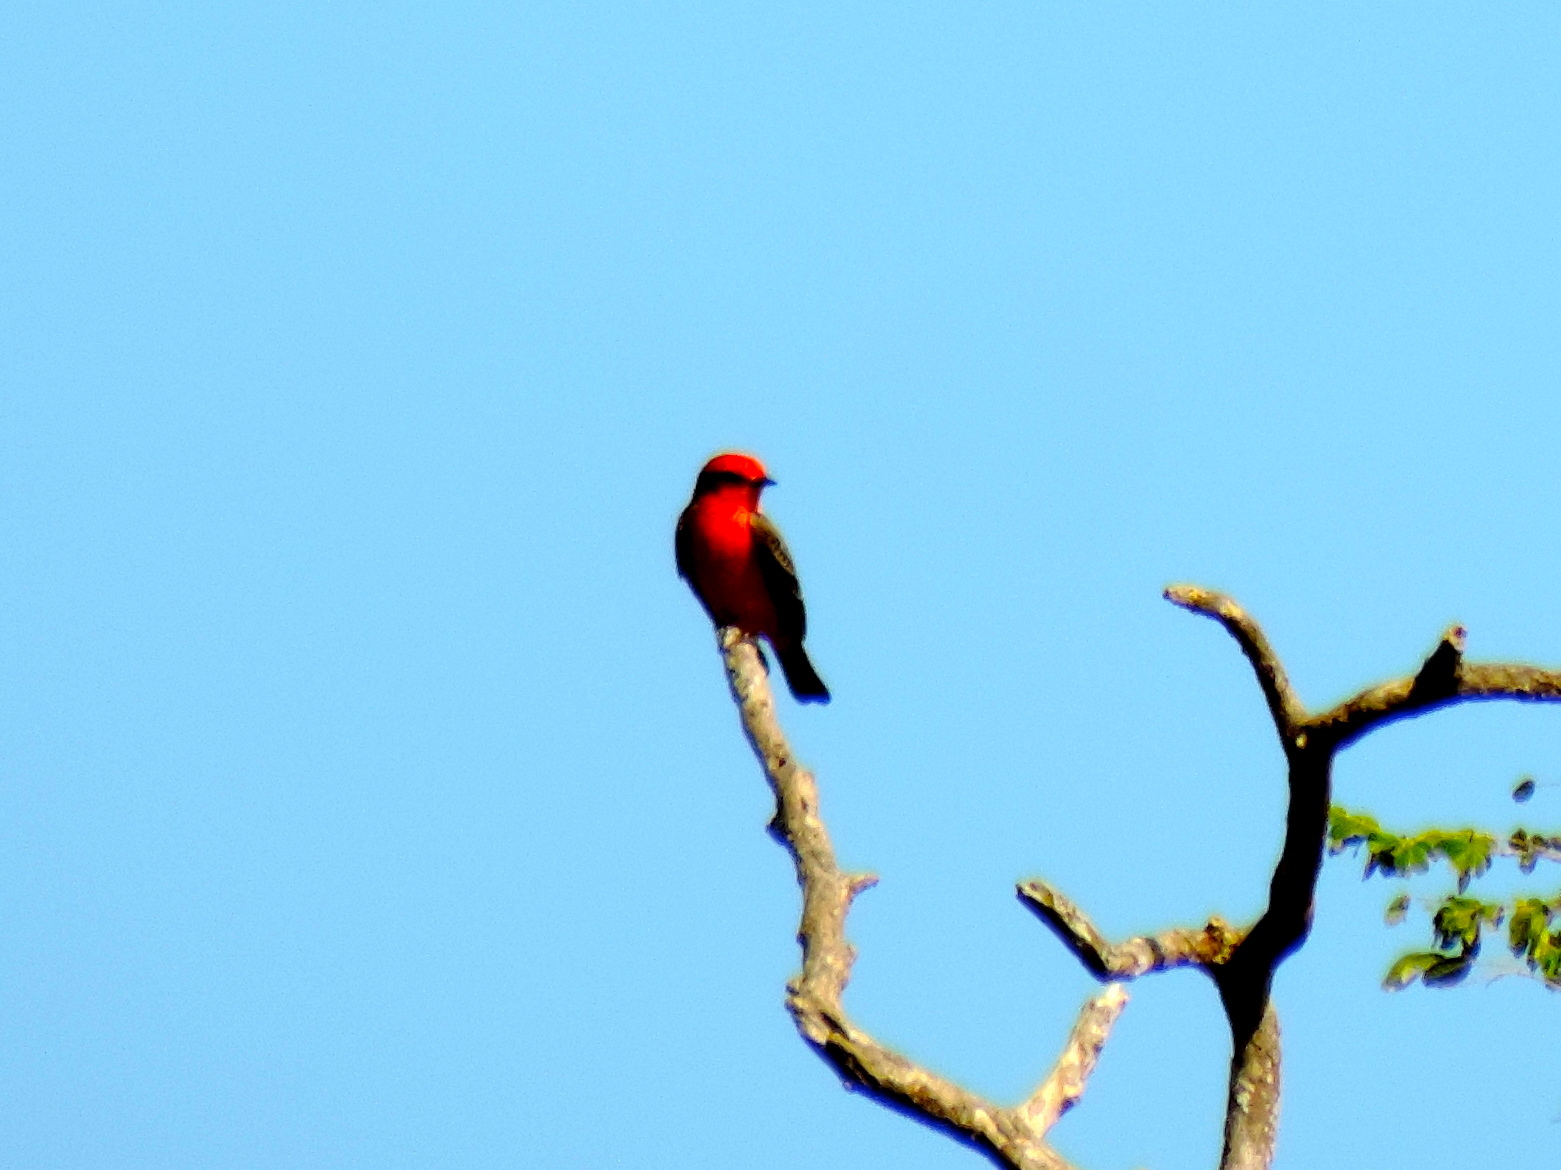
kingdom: Animalia
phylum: Chordata
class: Aves
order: Passeriformes
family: Tyrannidae
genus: Pyrocephalus
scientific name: Pyrocephalus rubinus
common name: Vermilion flycatcher
